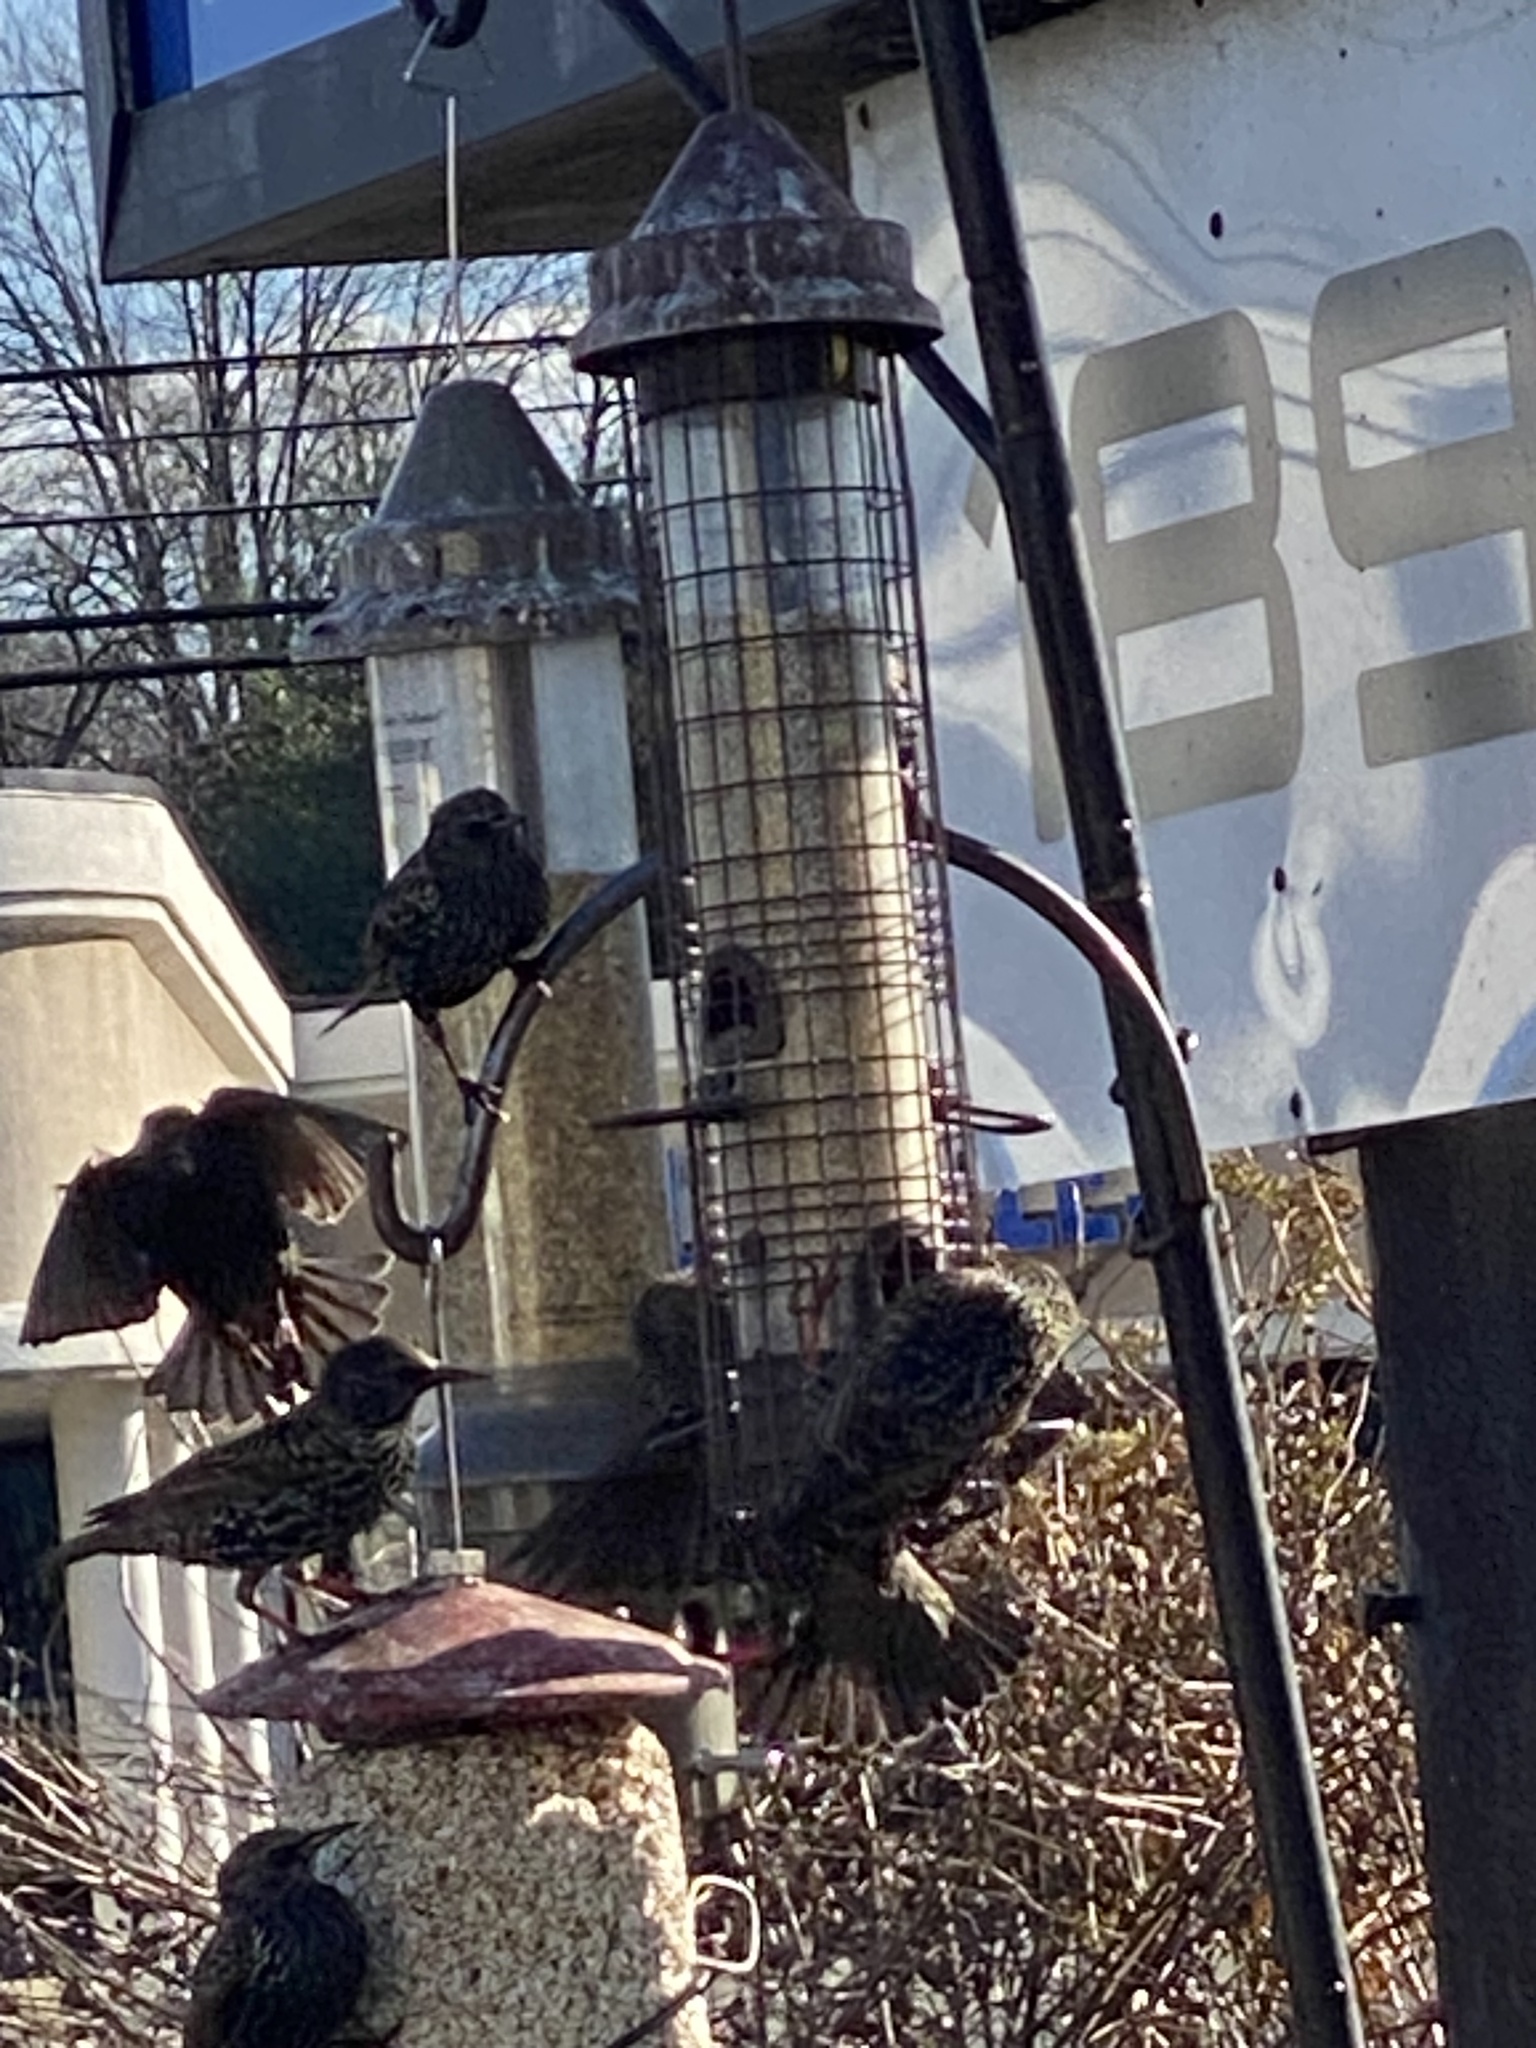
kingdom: Animalia
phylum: Chordata
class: Aves
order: Passeriformes
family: Sturnidae
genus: Sturnus
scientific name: Sturnus vulgaris
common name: Common starling
